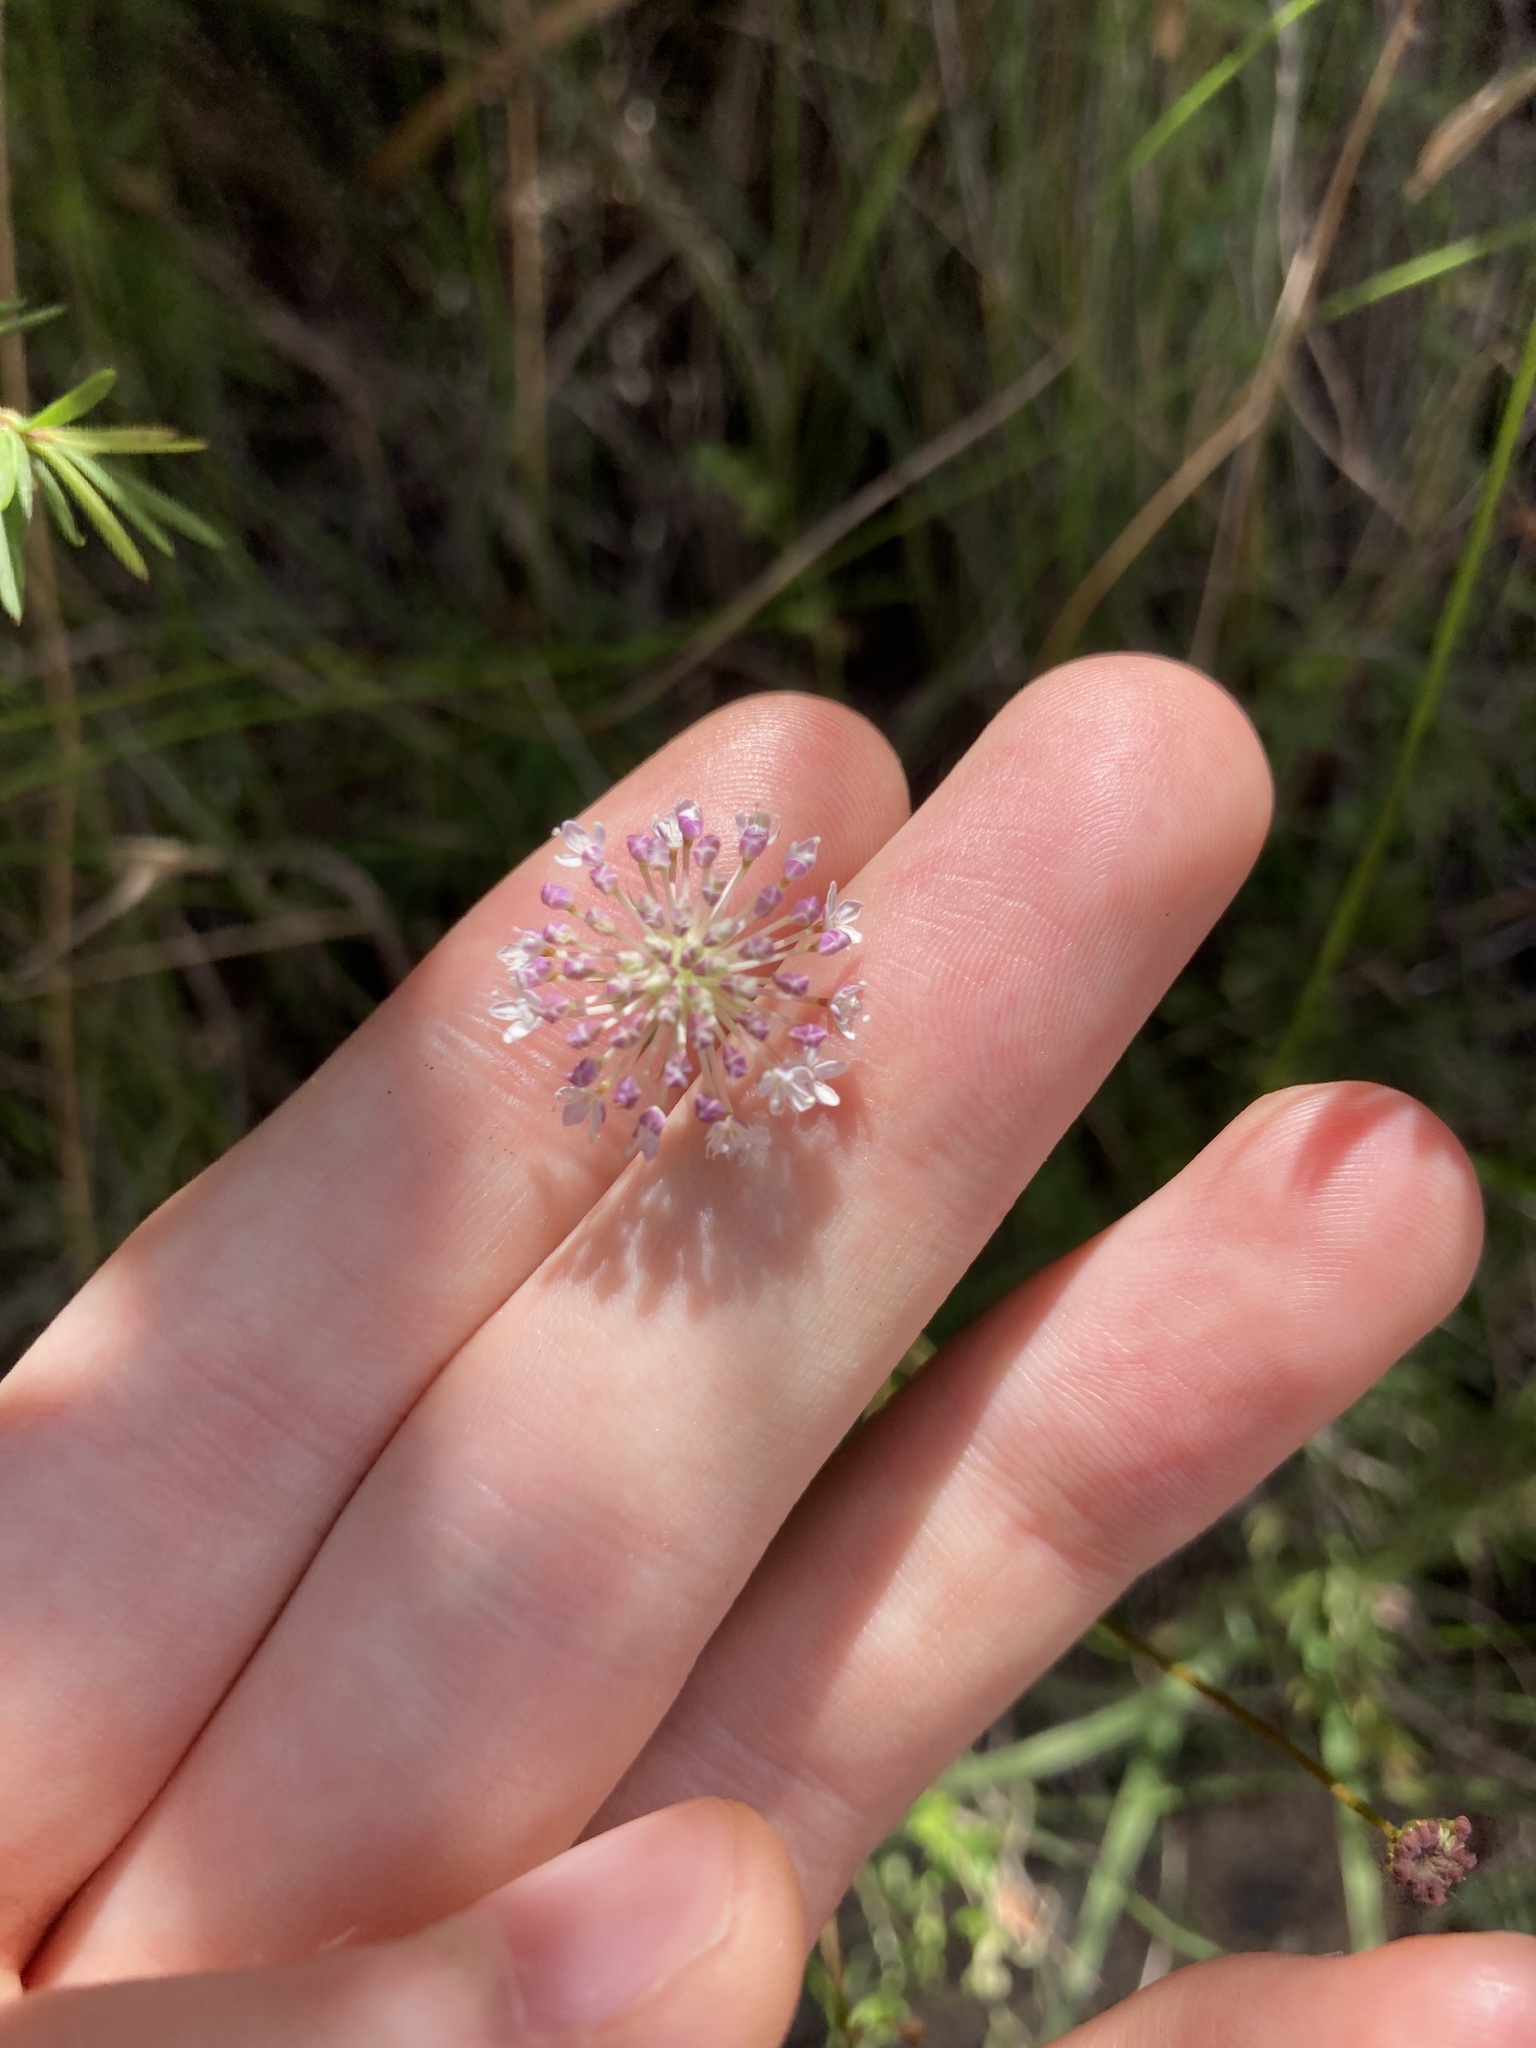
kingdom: Plantae
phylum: Tracheophyta
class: Magnoliopsida
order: Apiales
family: Araliaceae
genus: Trachymene
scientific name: Trachymene incisa
